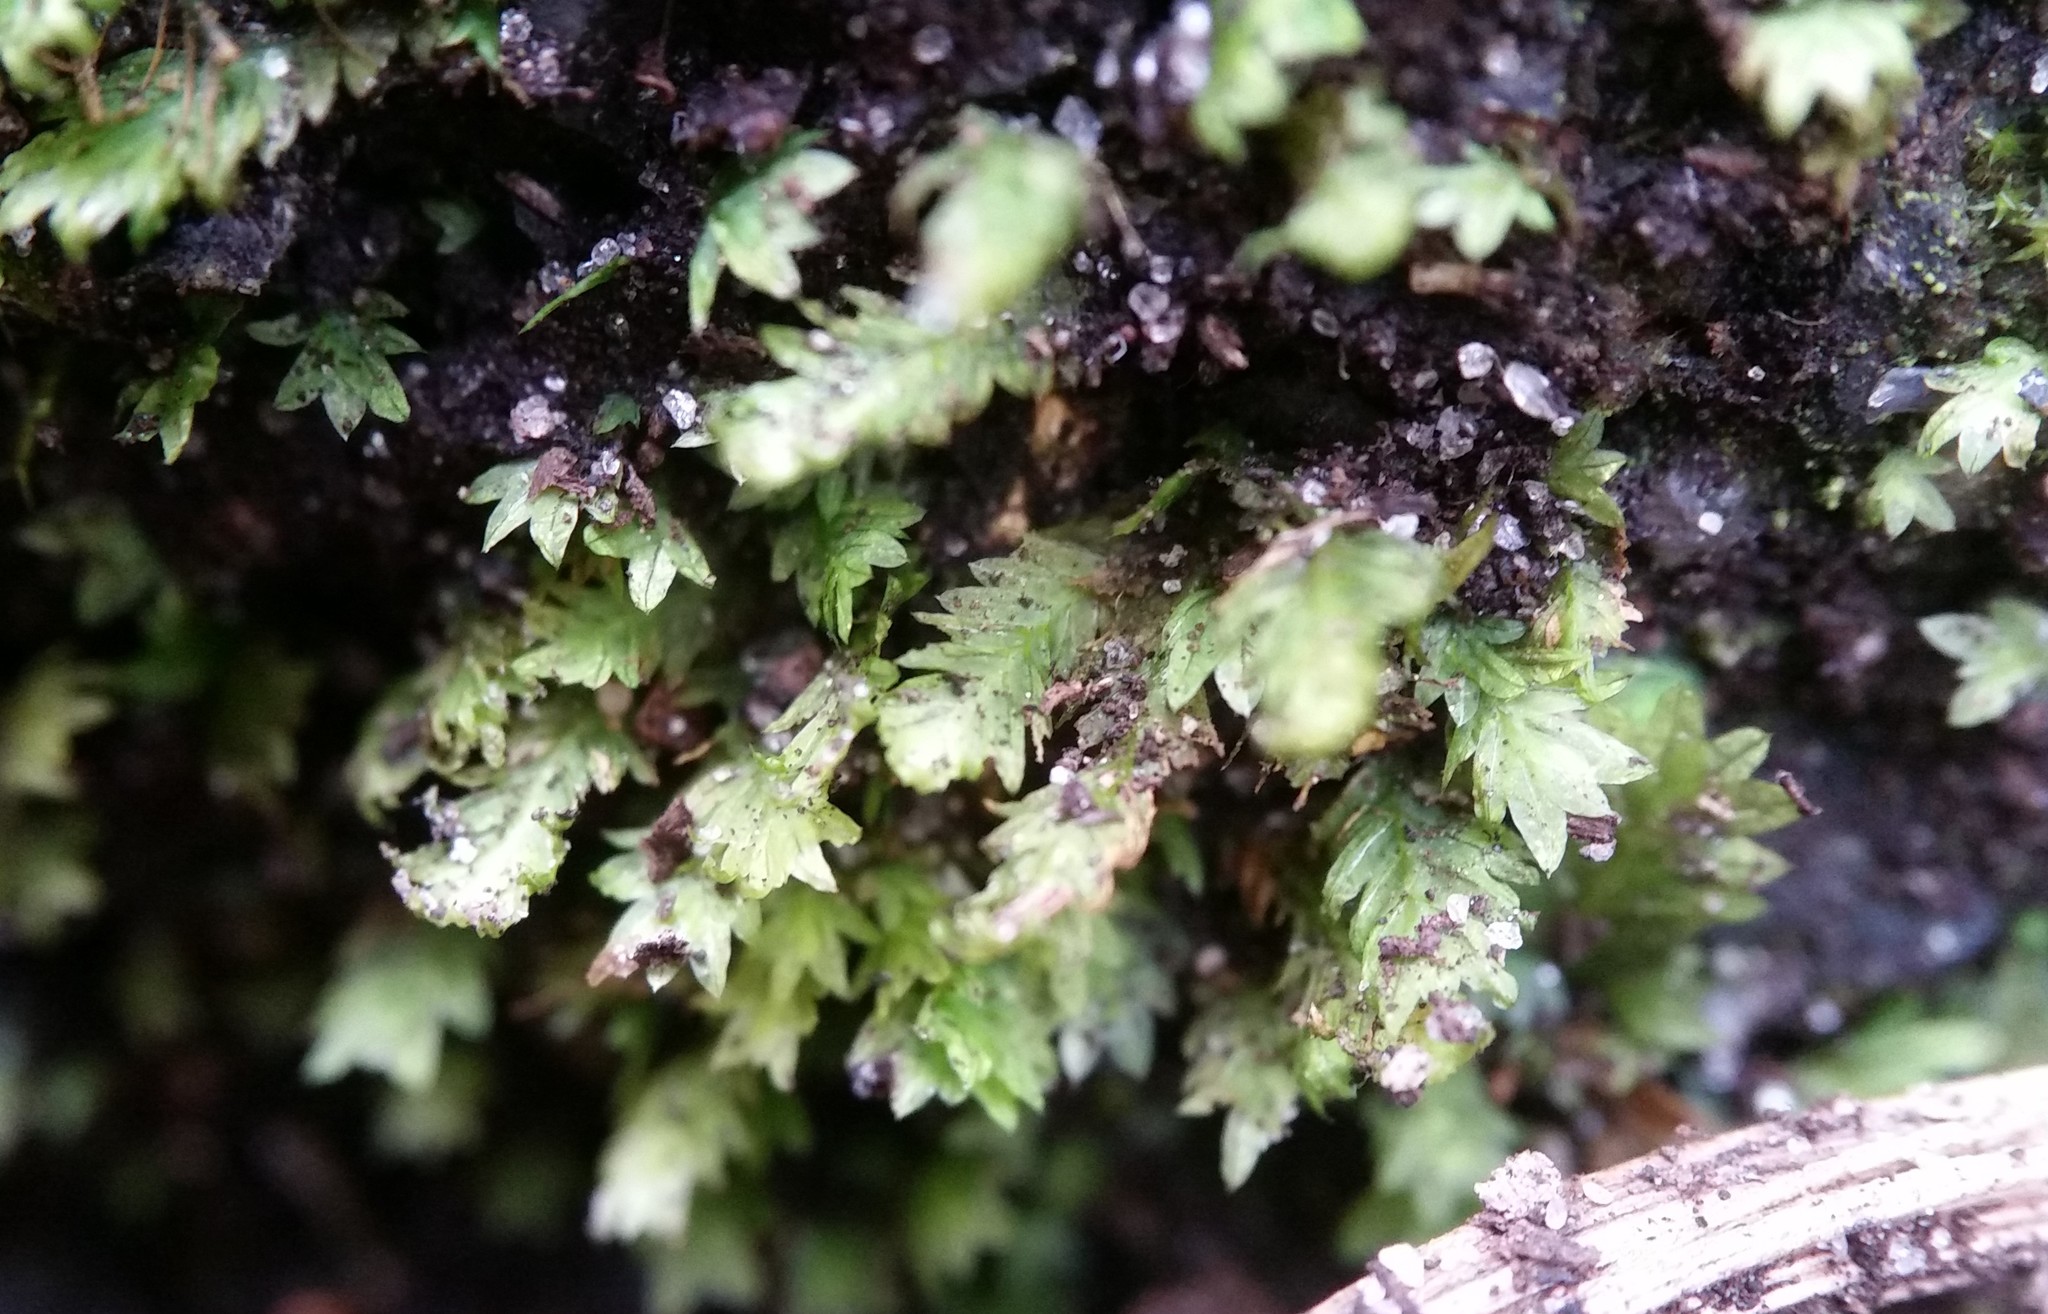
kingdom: Plantae
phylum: Bryophyta
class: Bryopsida
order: Dicranales
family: Fissidentaceae
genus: Fissidens
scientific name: Fissidens taxifolius
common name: Yew-leaved pocket moss
